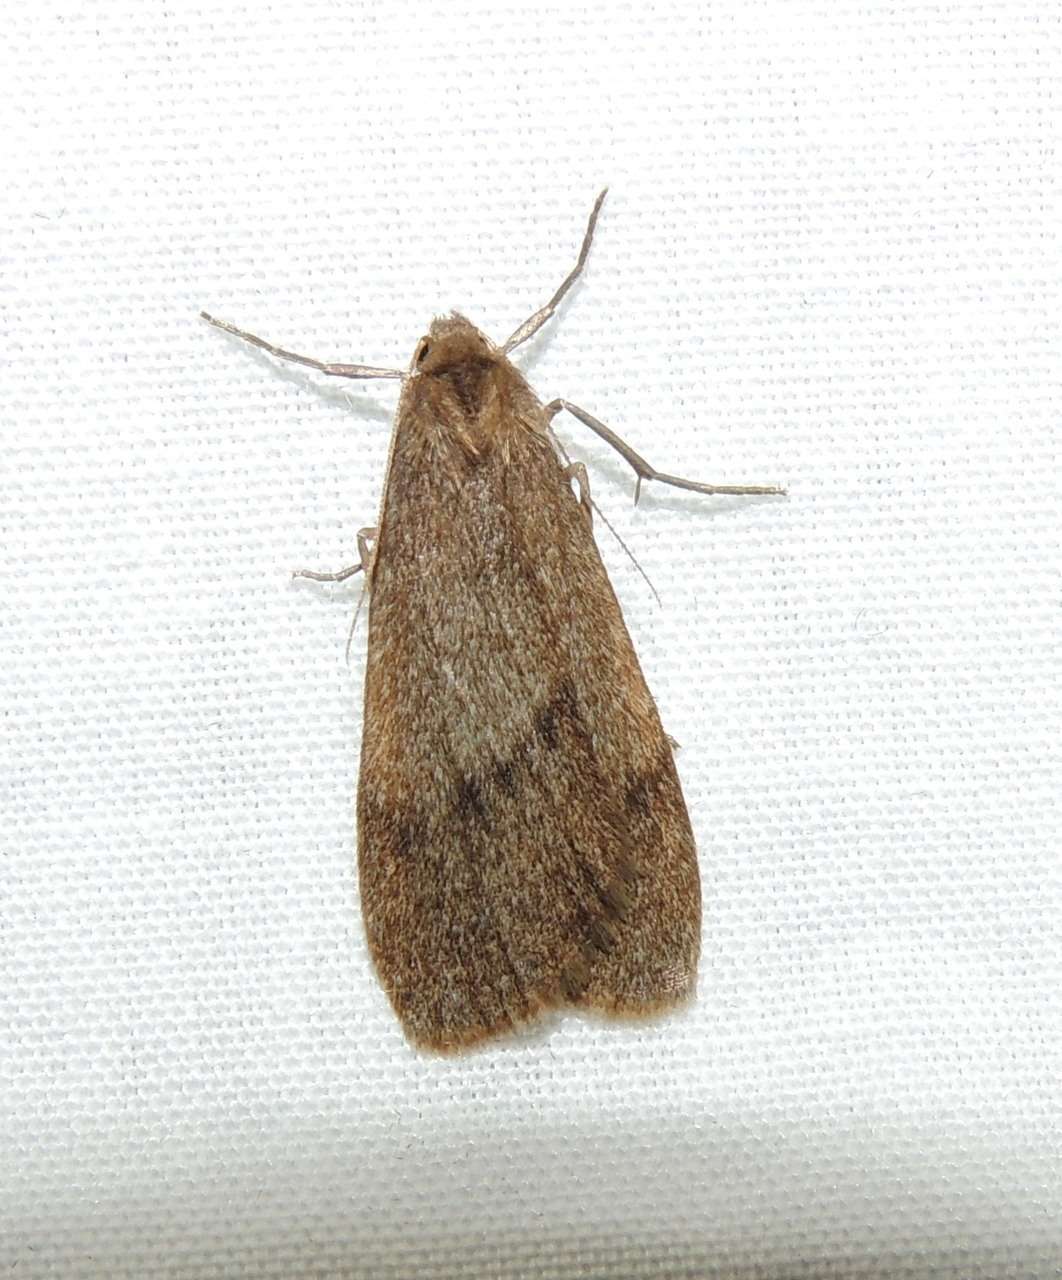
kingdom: Animalia
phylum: Arthropoda
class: Insecta
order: Lepidoptera
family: Erebidae
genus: Threnosia
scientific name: Threnosia myochroa
